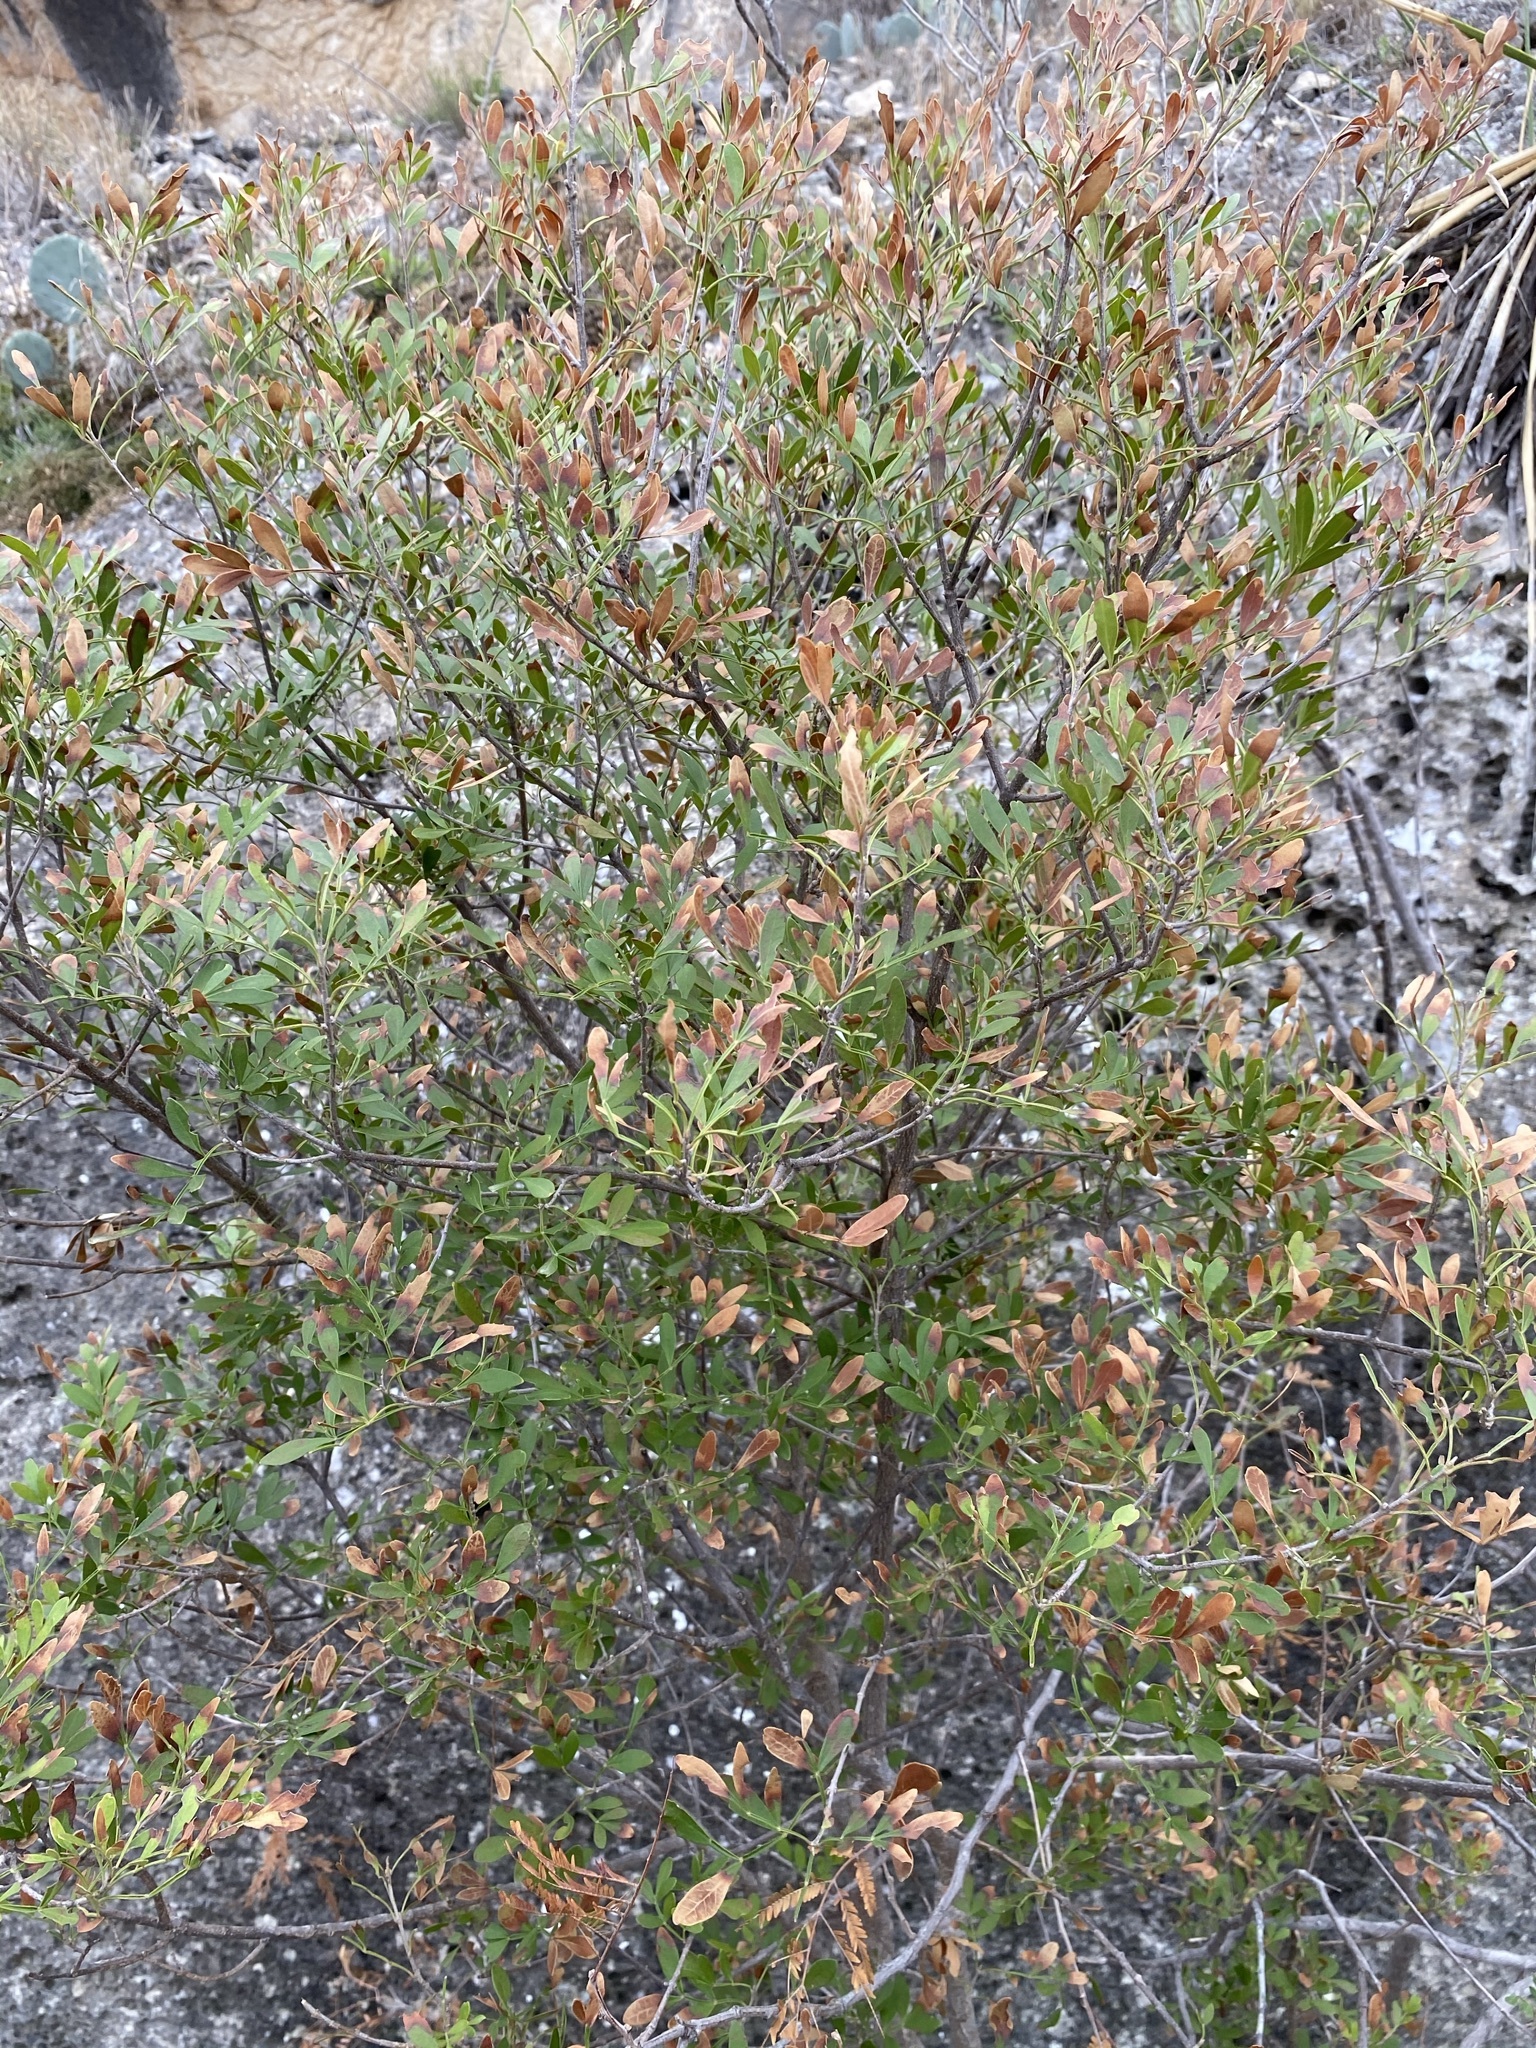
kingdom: Plantae
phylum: Tracheophyta
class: Magnoliopsida
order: Lamiales
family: Oleaceae
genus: Fraxinus
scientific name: Fraxinus greggii
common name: Gregg ash
